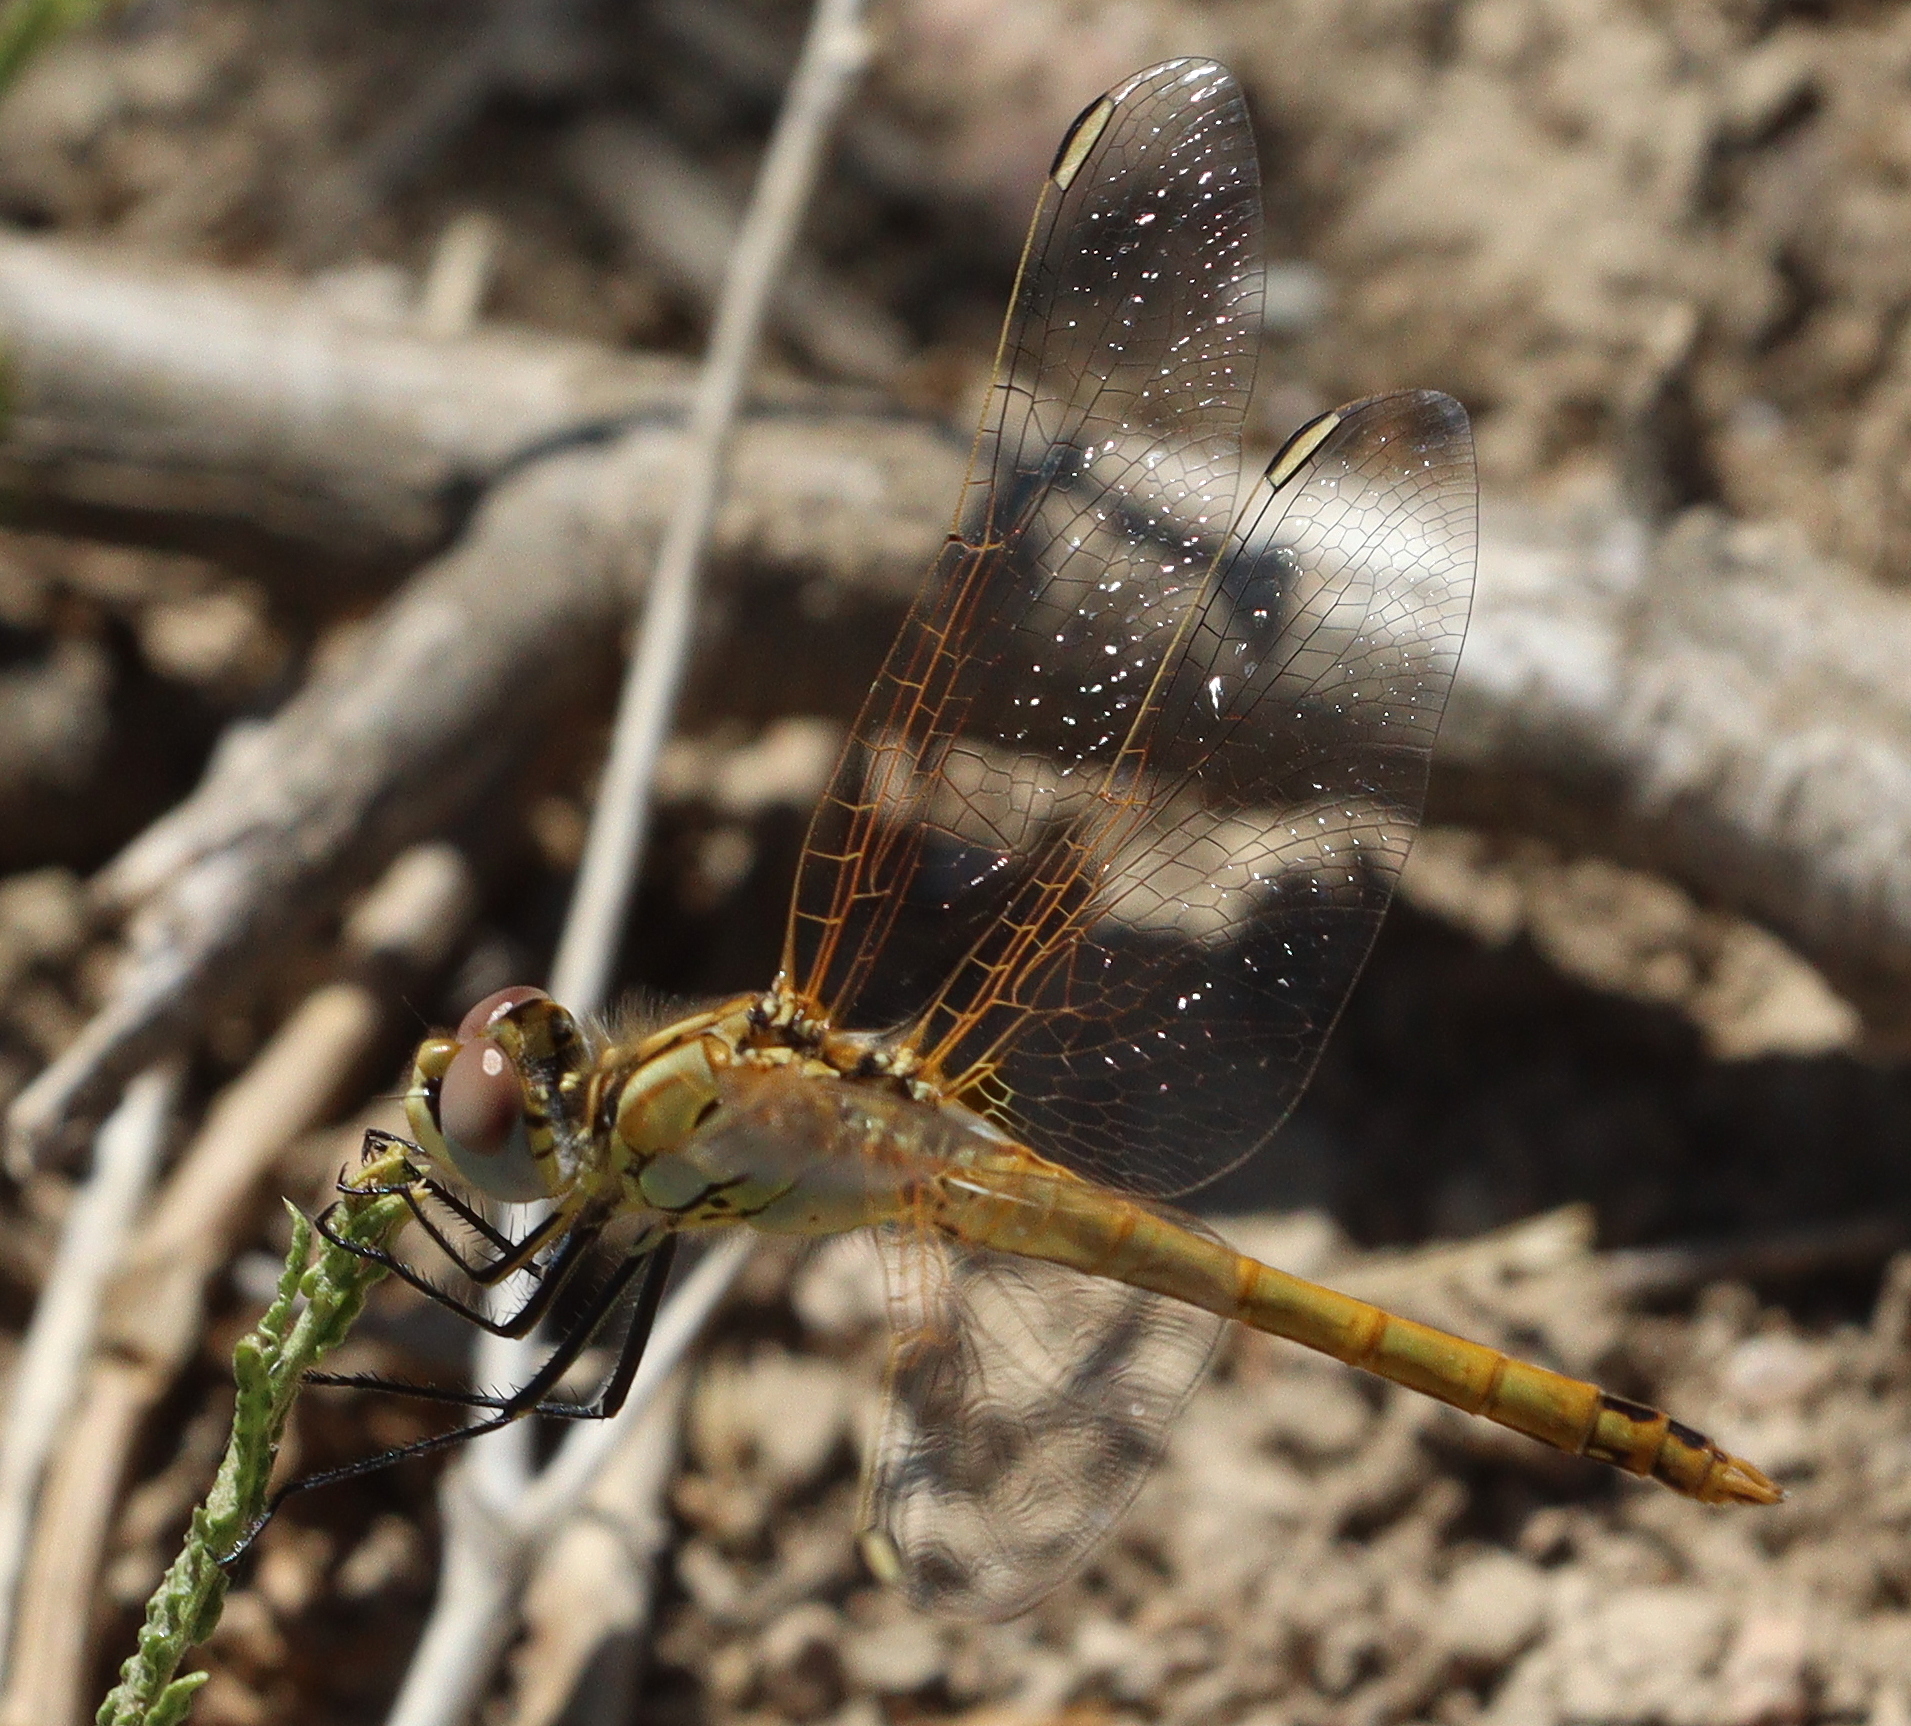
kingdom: Animalia
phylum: Arthropoda
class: Insecta
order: Odonata
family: Libellulidae
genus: Sympetrum
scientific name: Sympetrum fonscolombii
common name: Red-veined darter
